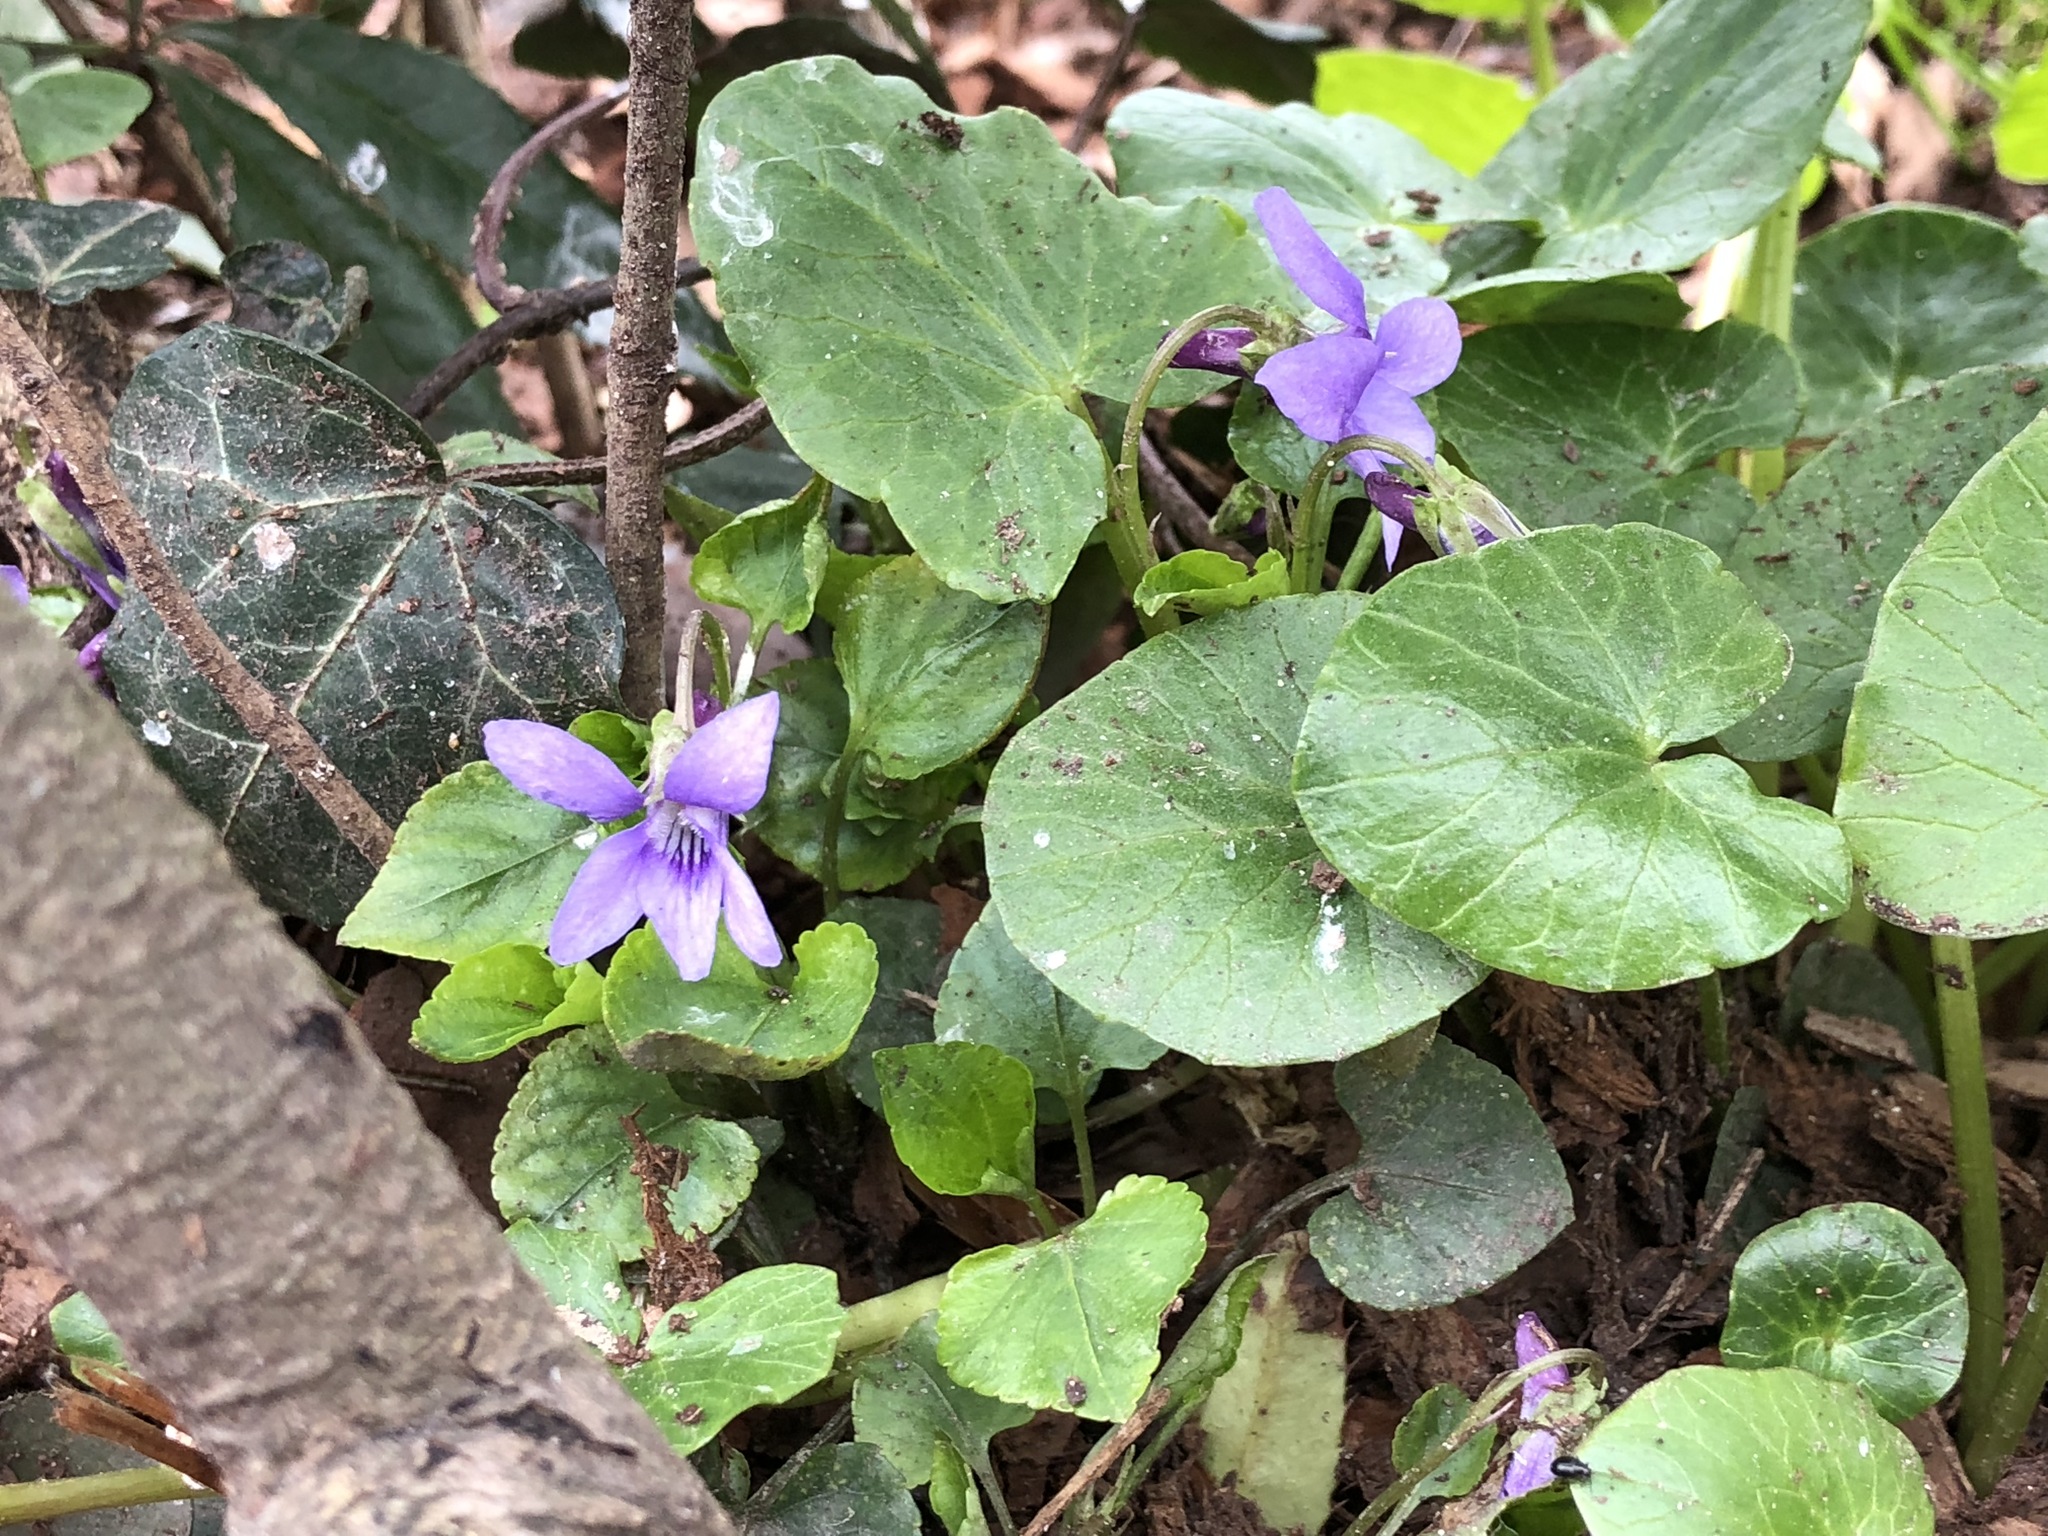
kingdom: Plantae
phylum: Tracheophyta
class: Magnoliopsida
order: Malpighiales
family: Violaceae
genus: Viola
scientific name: Viola reichenbachiana
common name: Early dog-violet
